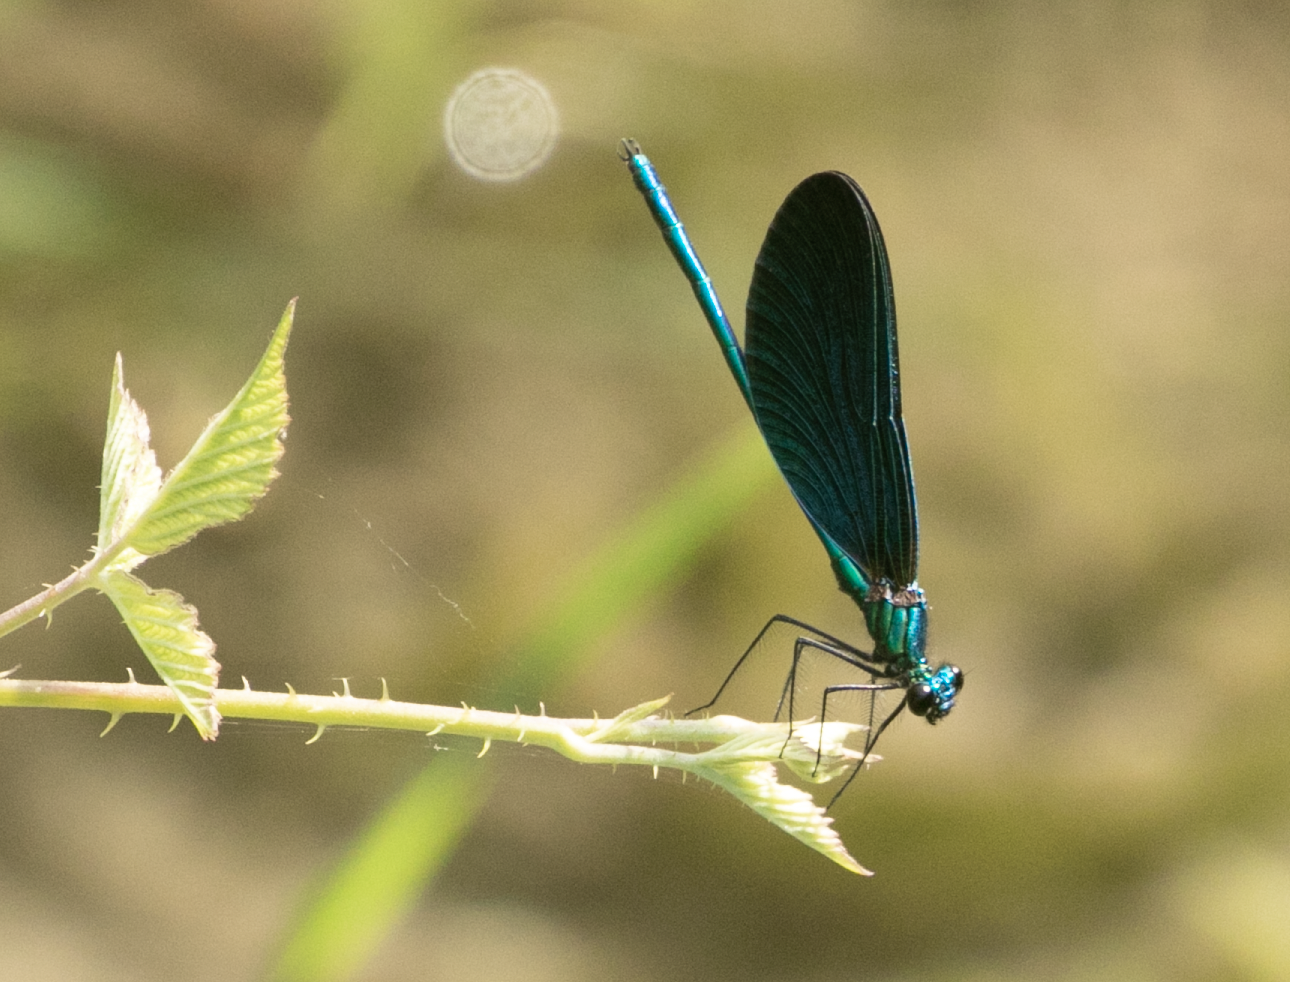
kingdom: Animalia
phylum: Arthropoda
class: Insecta
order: Odonata
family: Calopterygidae
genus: Calopteryx
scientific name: Calopteryx virgo
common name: Beautiful demoiselle
